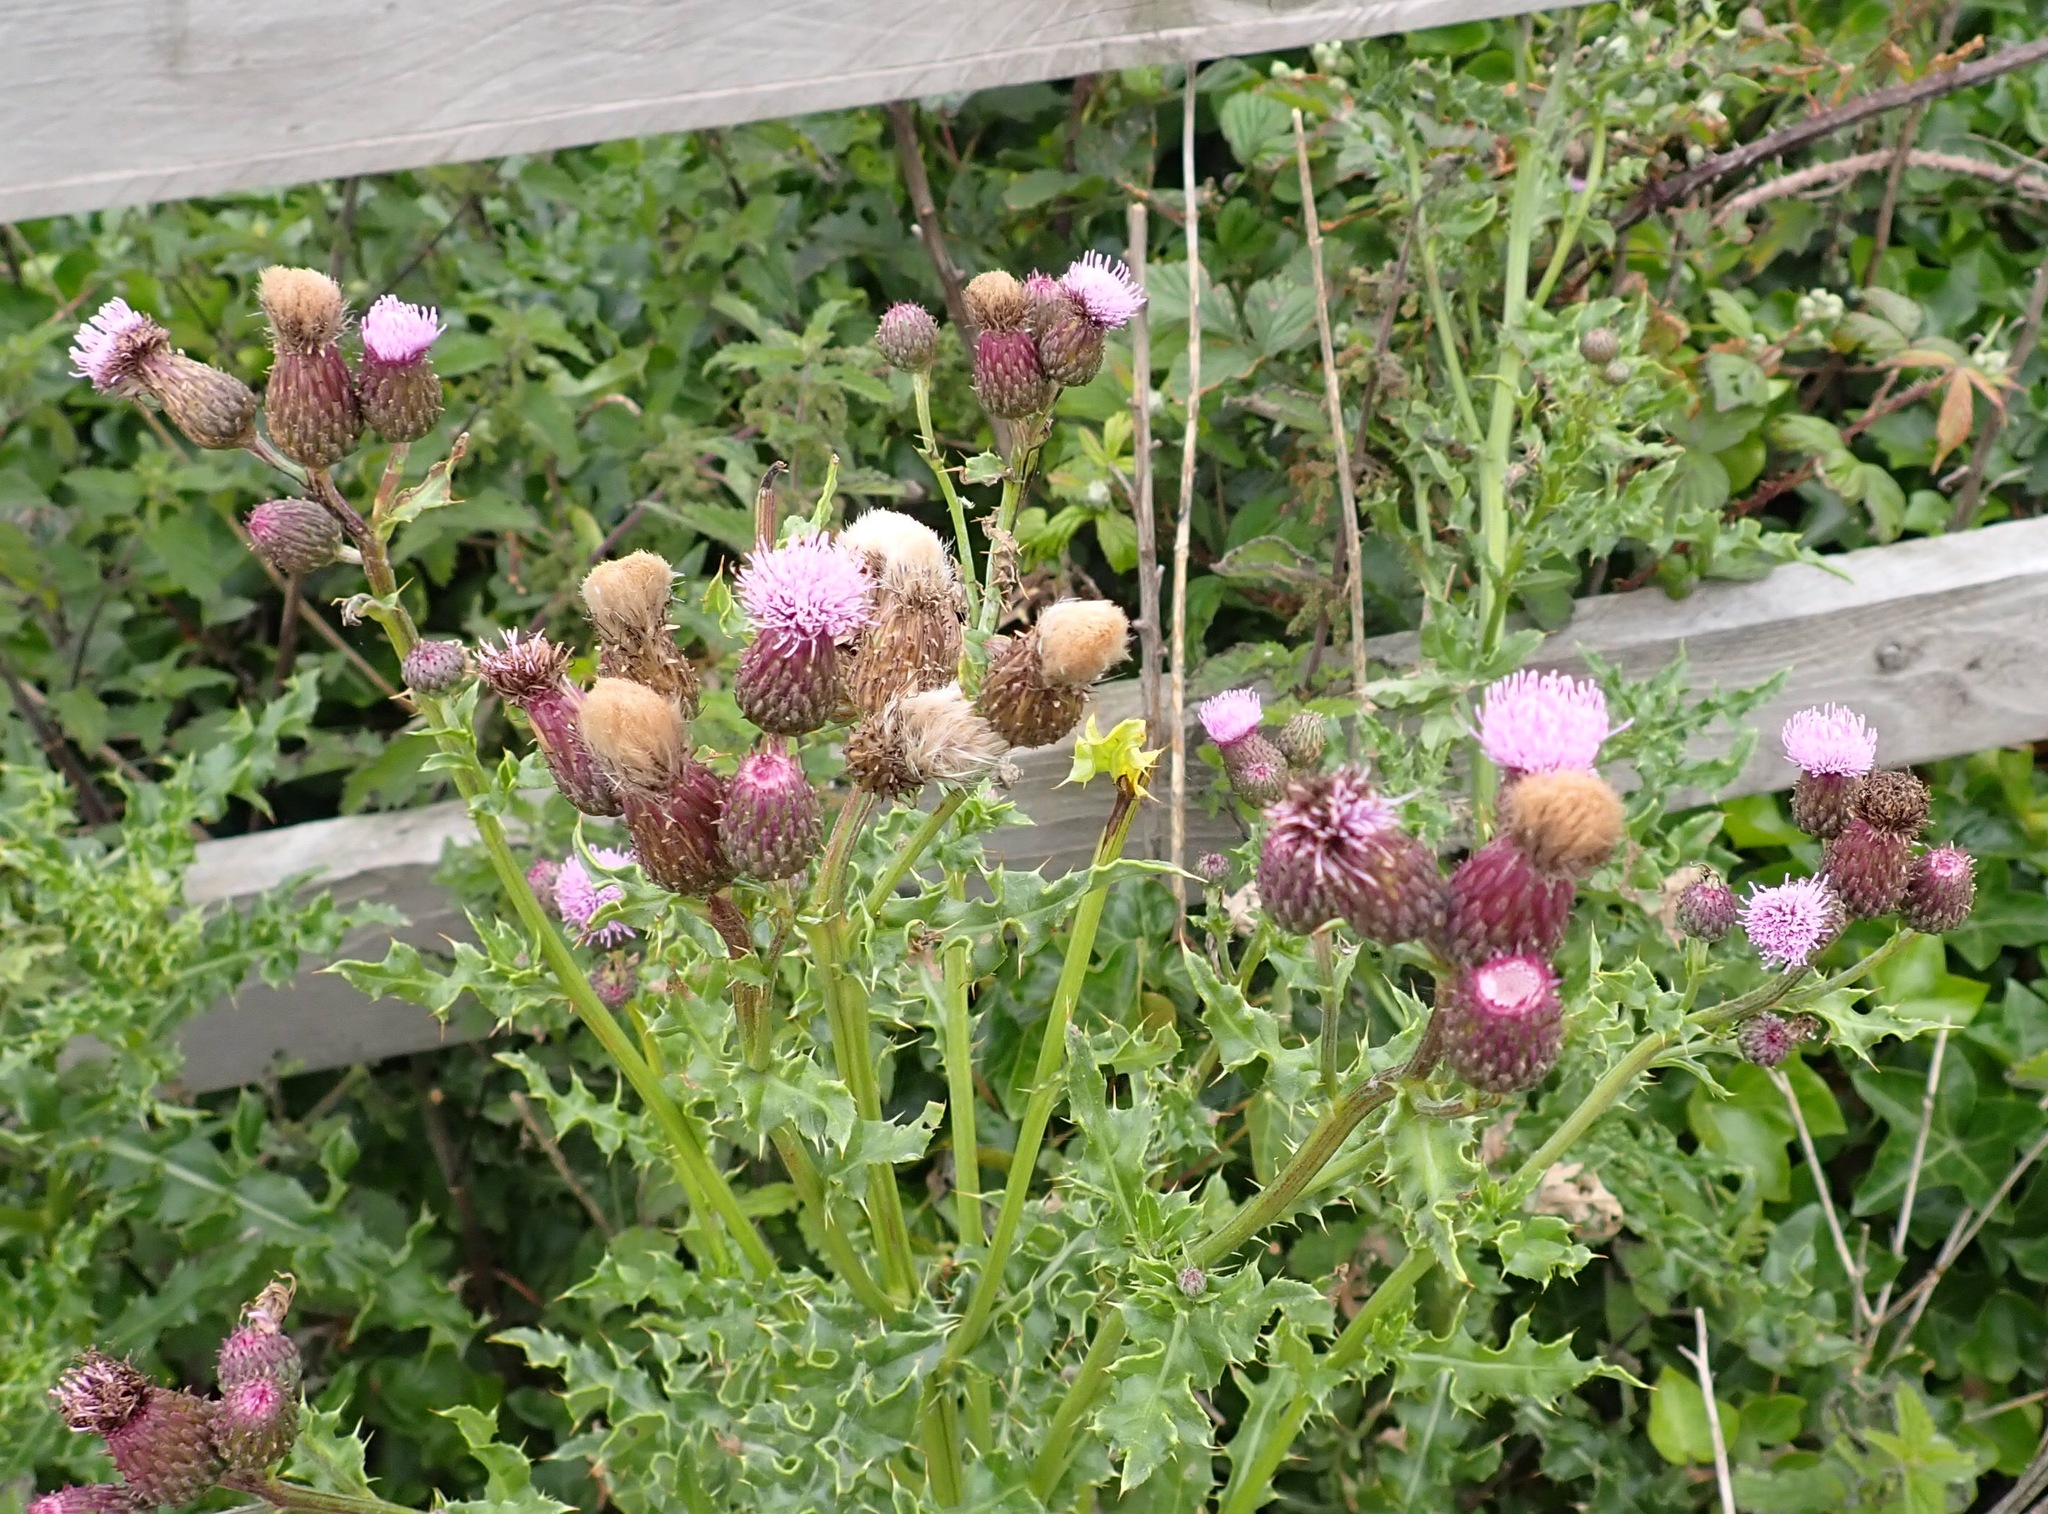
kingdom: Plantae
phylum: Tracheophyta
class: Magnoliopsida
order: Asterales
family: Asteraceae
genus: Cirsium
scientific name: Cirsium arvense
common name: Creeping thistle
